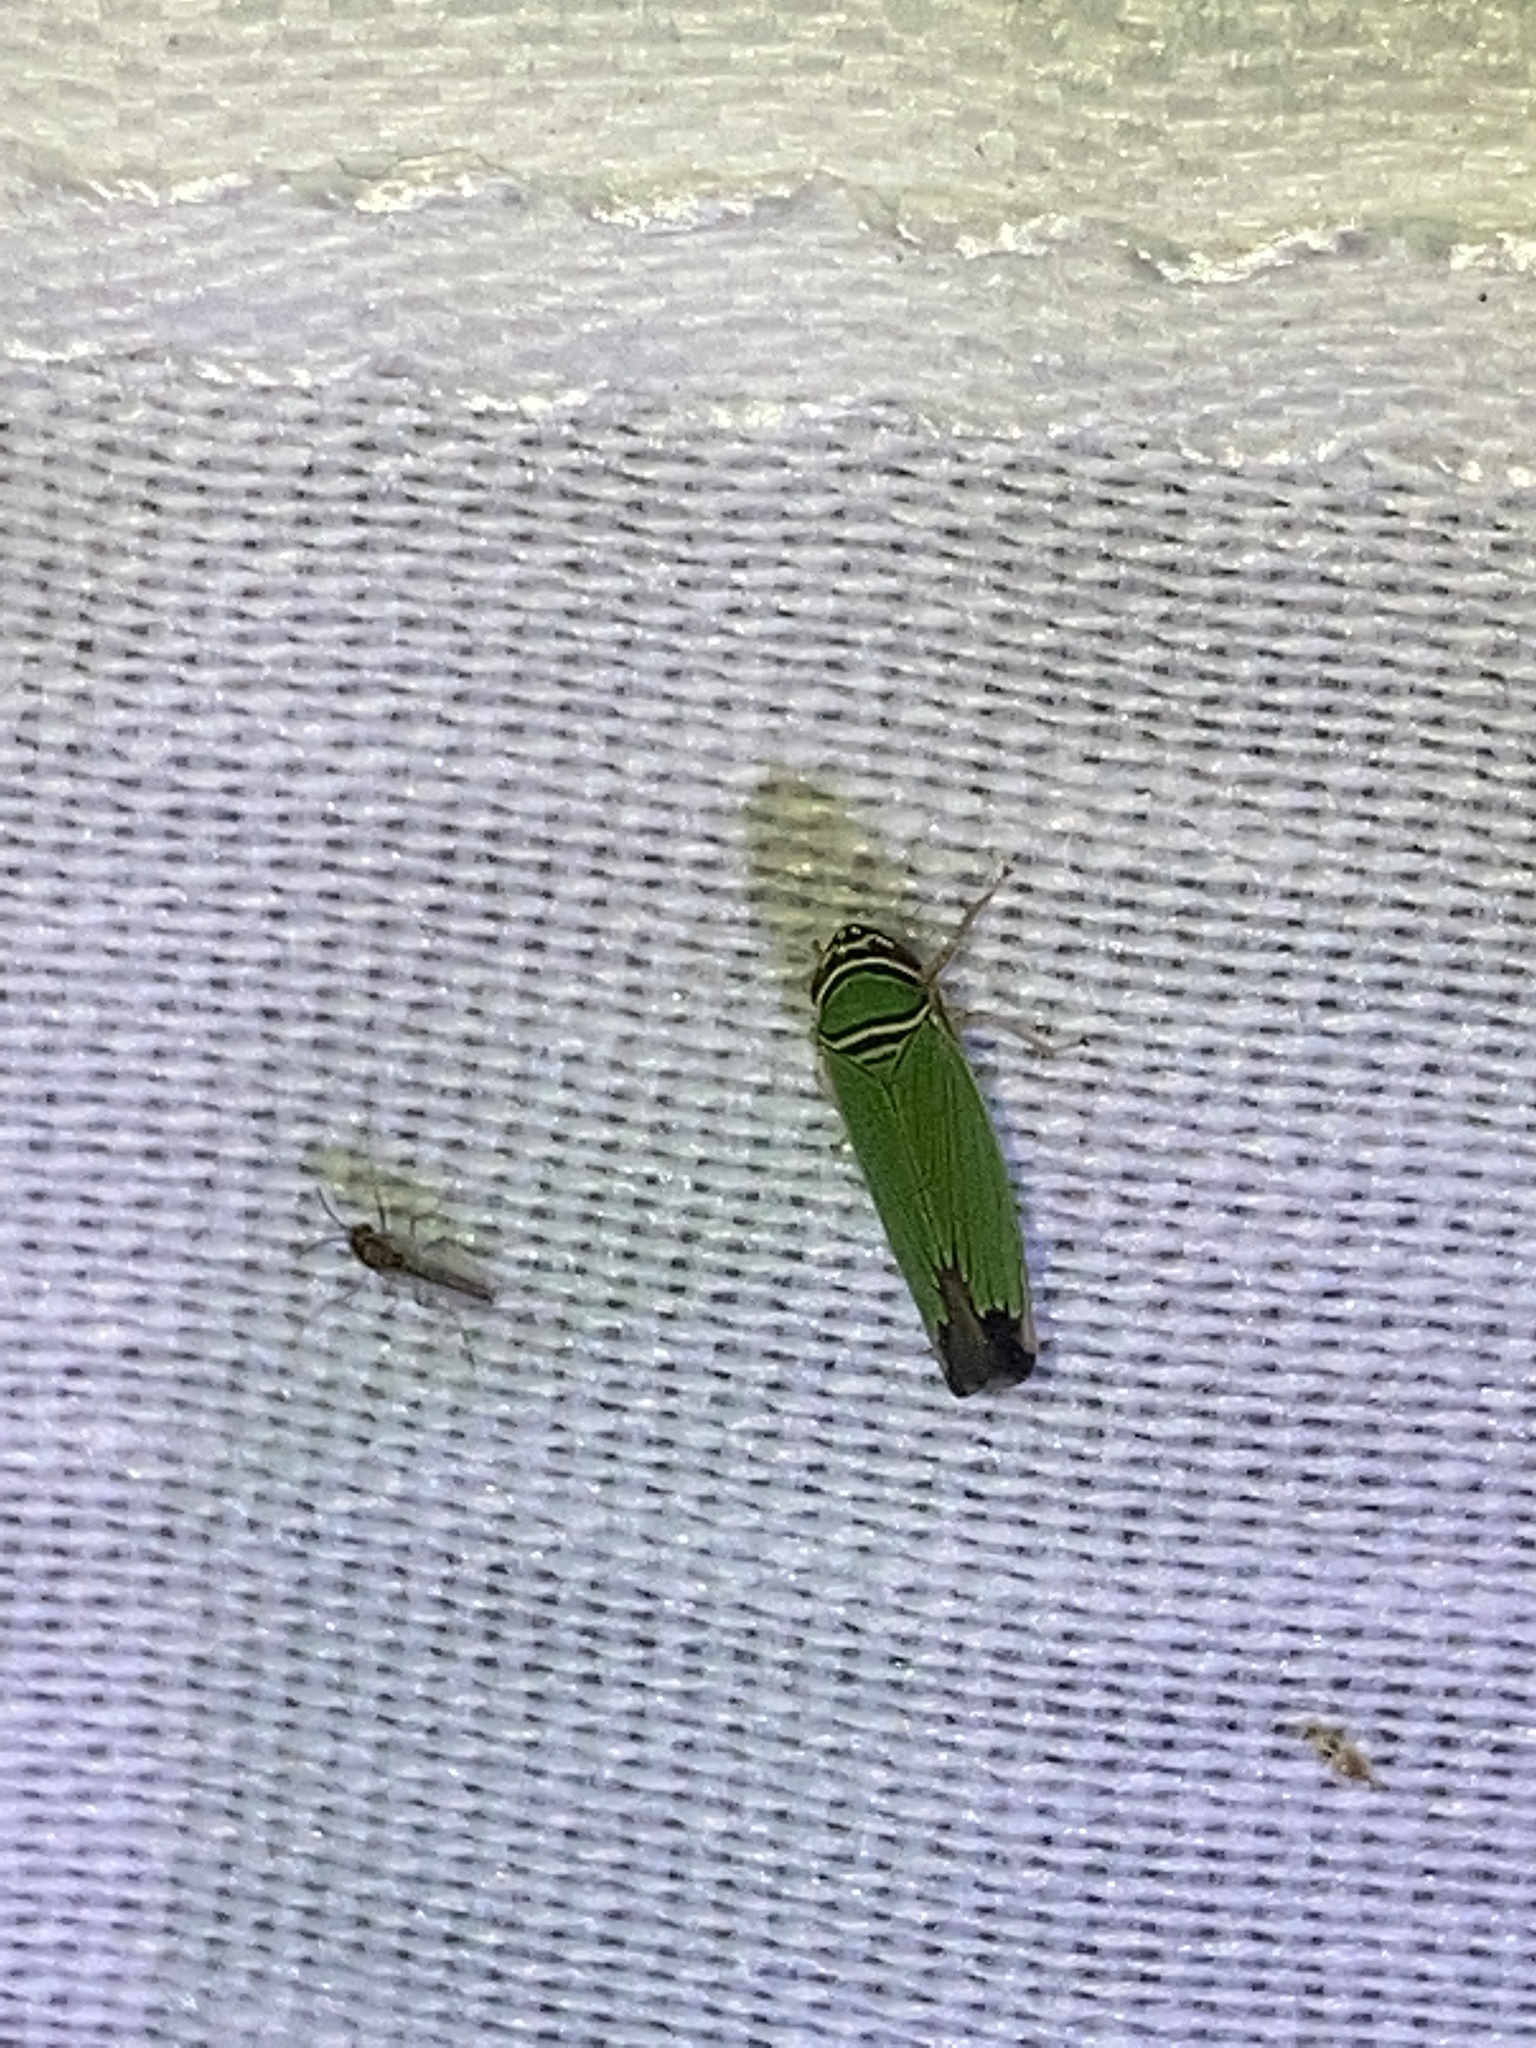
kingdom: Animalia
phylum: Arthropoda
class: Insecta
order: Hemiptera
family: Cicadellidae
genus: Tylozygus
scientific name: Tylozygus geometricus
